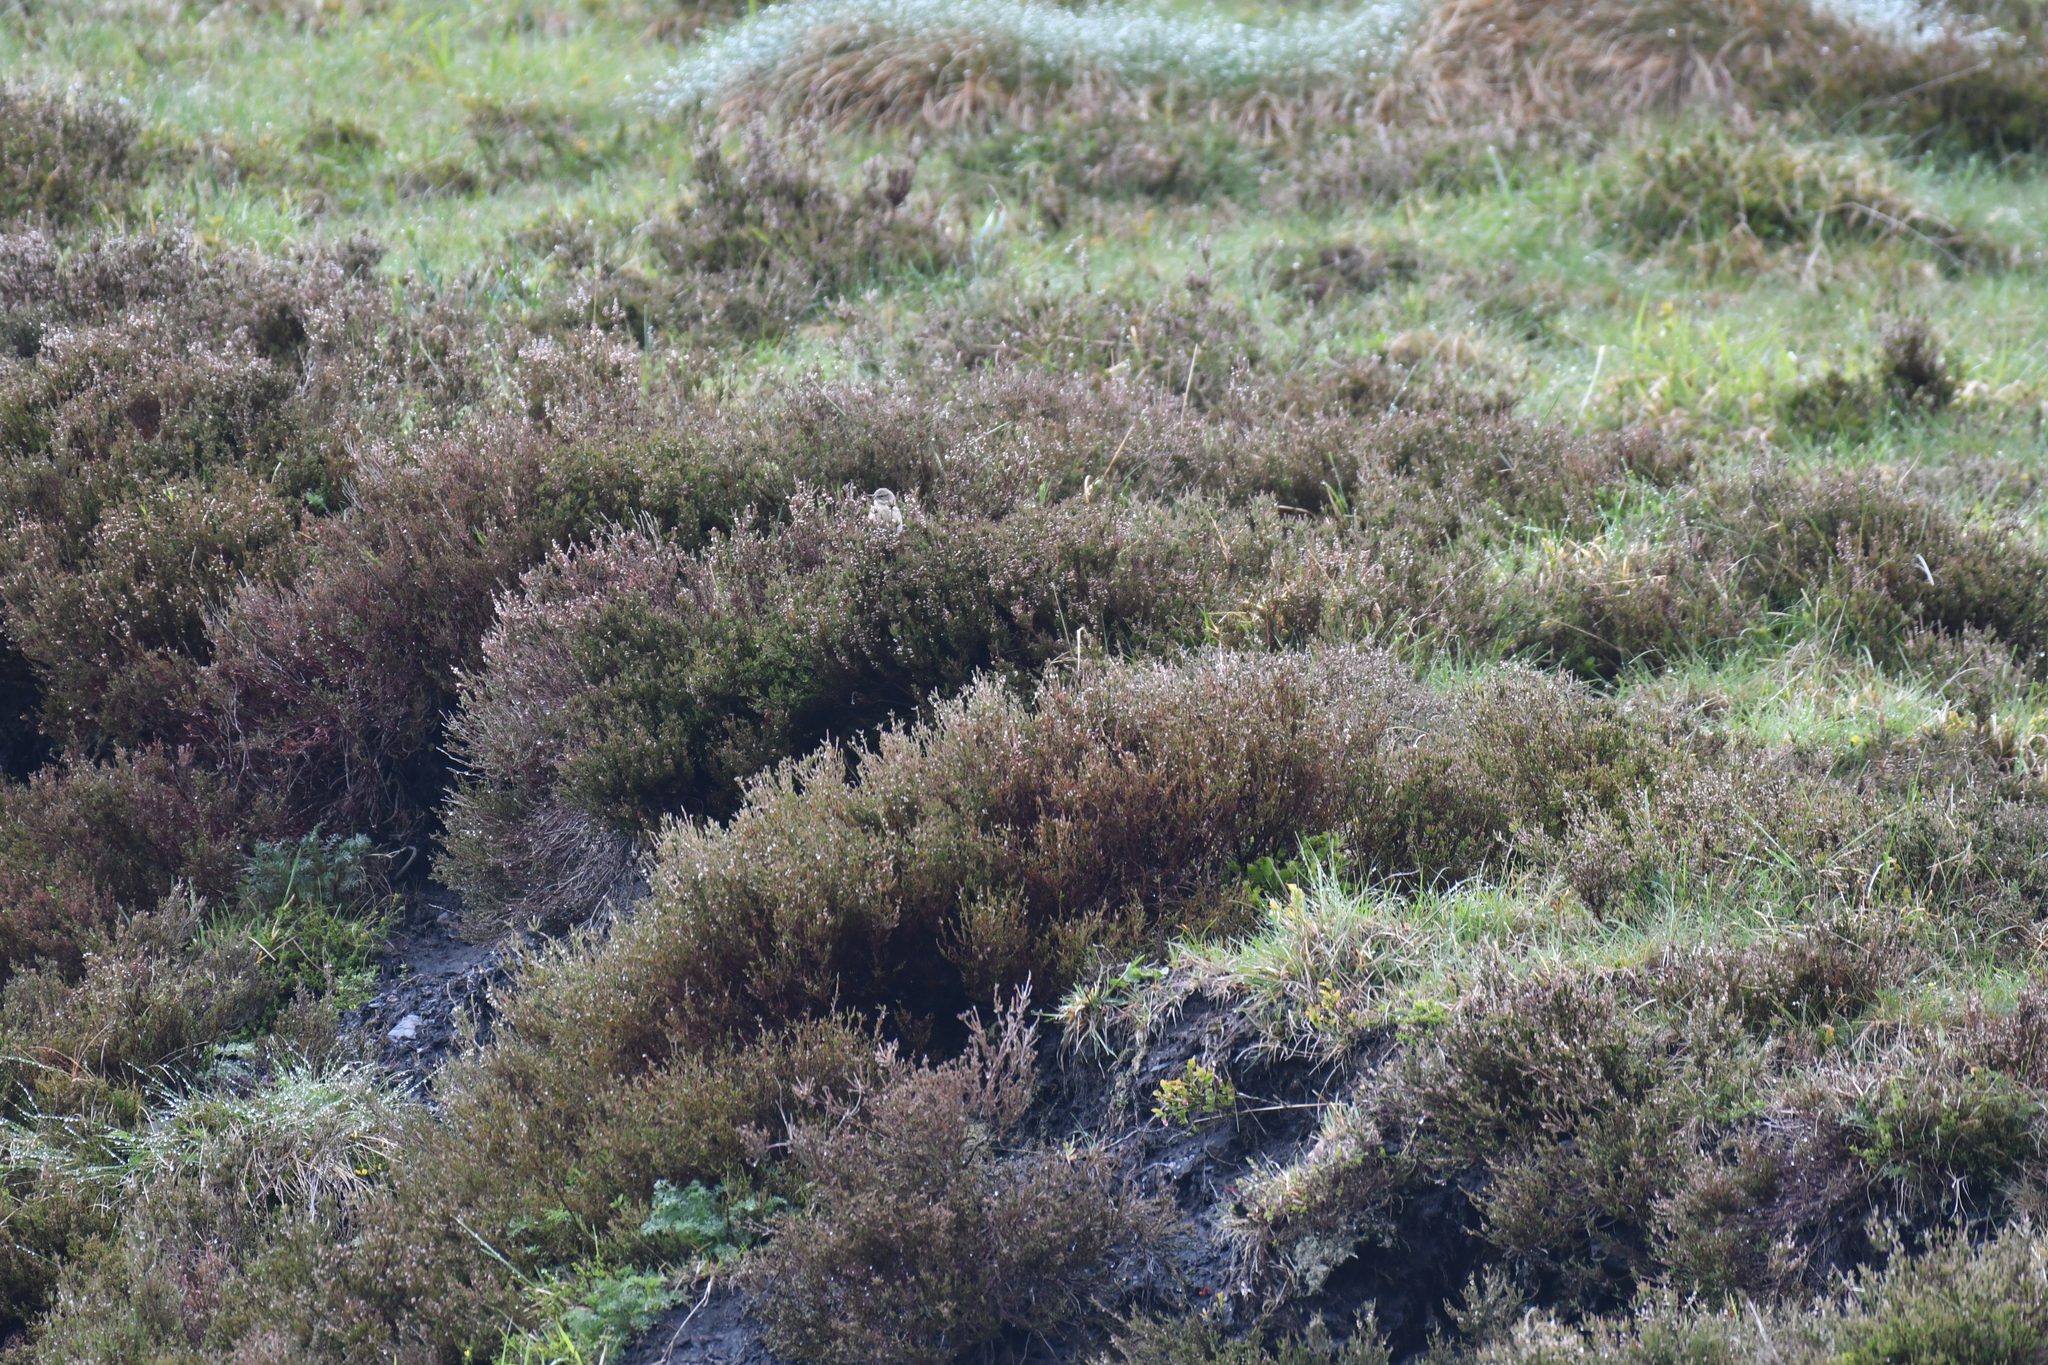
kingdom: Animalia
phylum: Chordata
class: Aves
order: Passeriformes
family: Motacillidae
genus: Anthus
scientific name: Anthus spinoletta
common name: Water pipit
